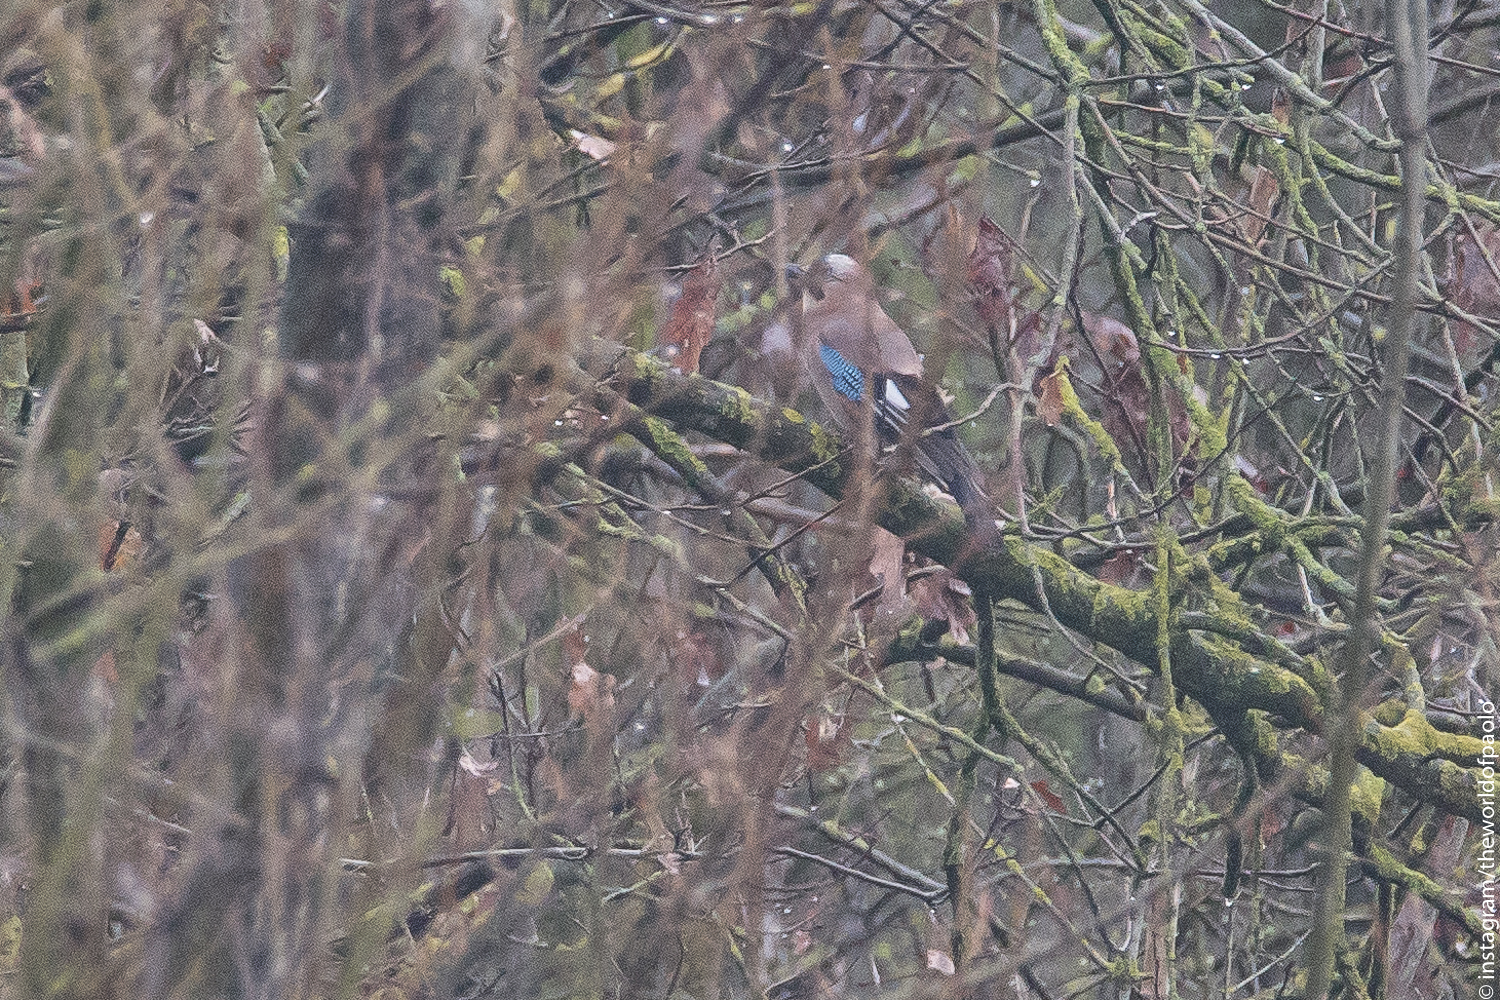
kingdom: Animalia
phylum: Chordata
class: Aves
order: Passeriformes
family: Corvidae
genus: Garrulus
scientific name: Garrulus glandarius
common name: Eurasian jay
